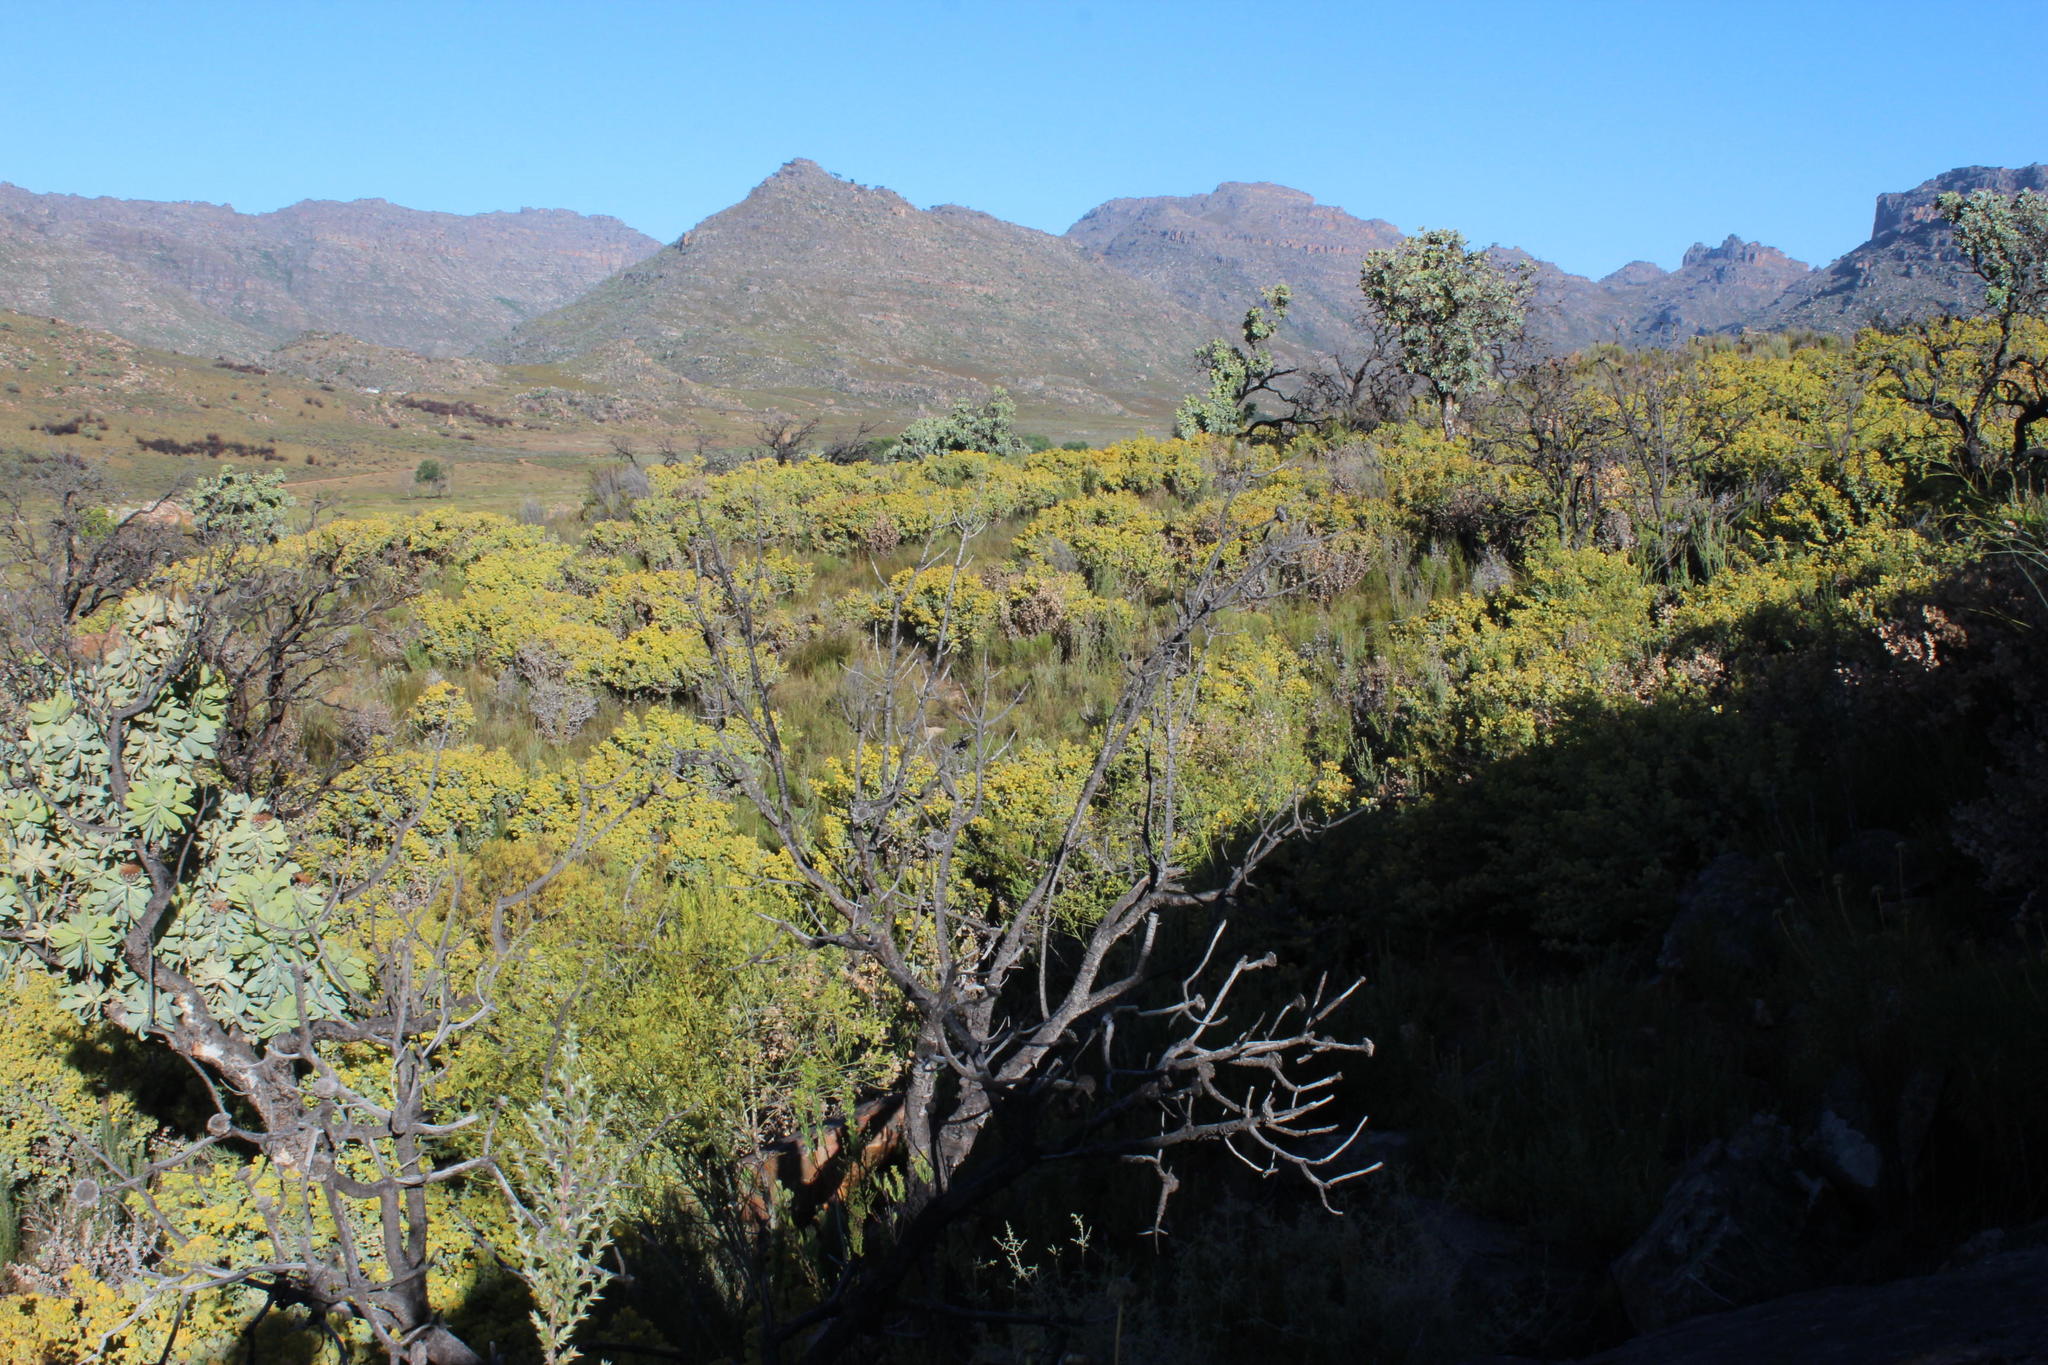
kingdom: Plantae
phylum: Tracheophyta
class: Magnoliopsida
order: Fabales
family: Fabaceae
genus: Rafnia
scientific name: Rafnia amplexicaulis
